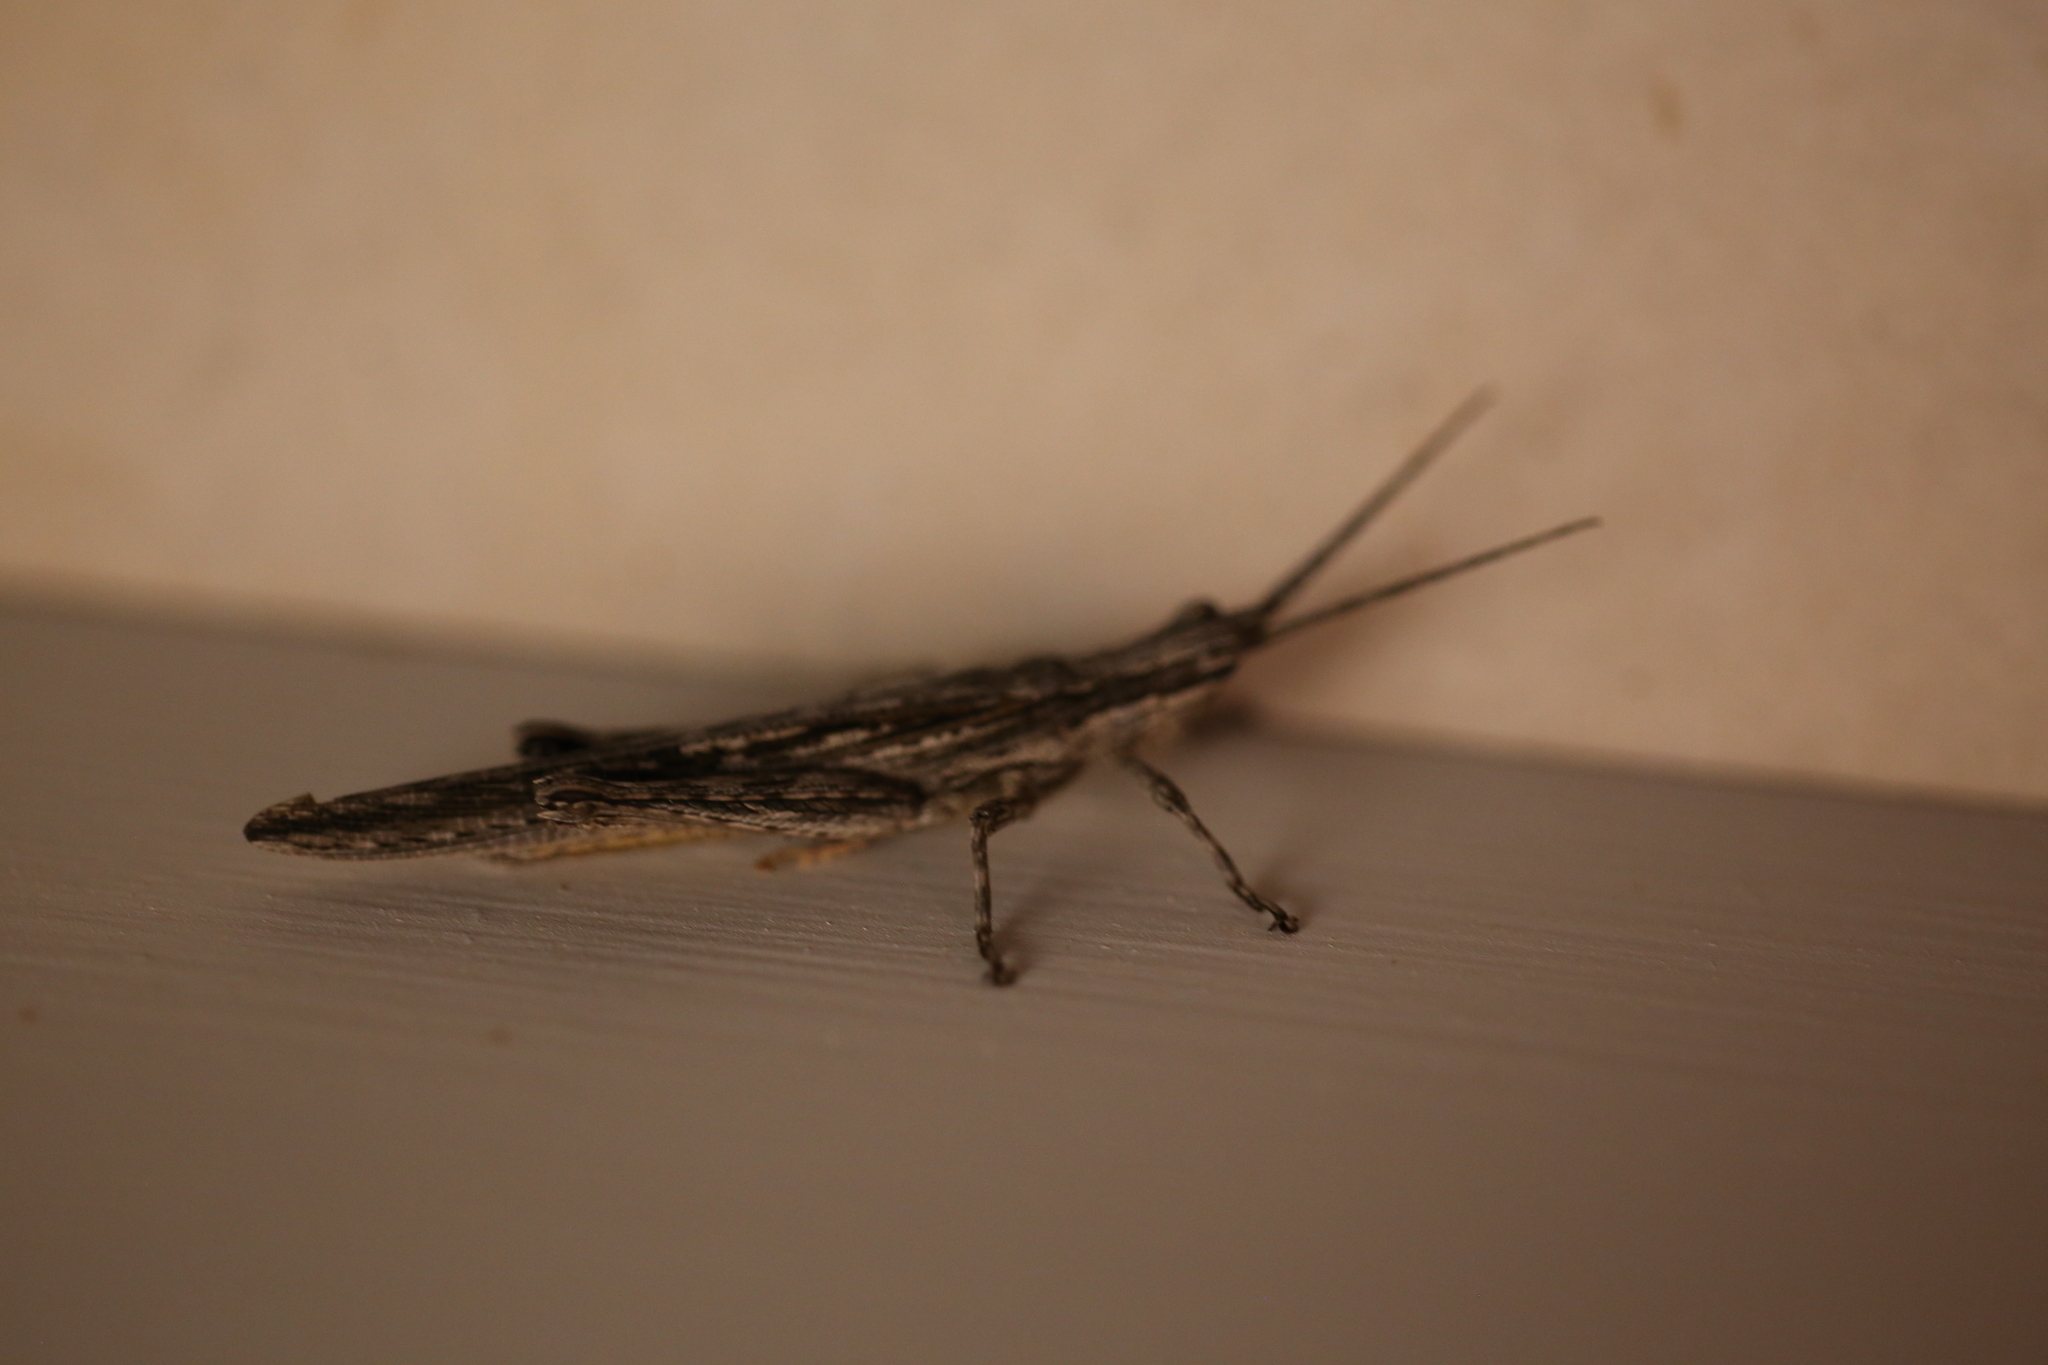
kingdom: Animalia
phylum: Arthropoda
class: Insecta
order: Orthoptera
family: Acrididae
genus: Coryphistes
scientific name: Coryphistes ruricola
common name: Bark-mimicking grasshopper
